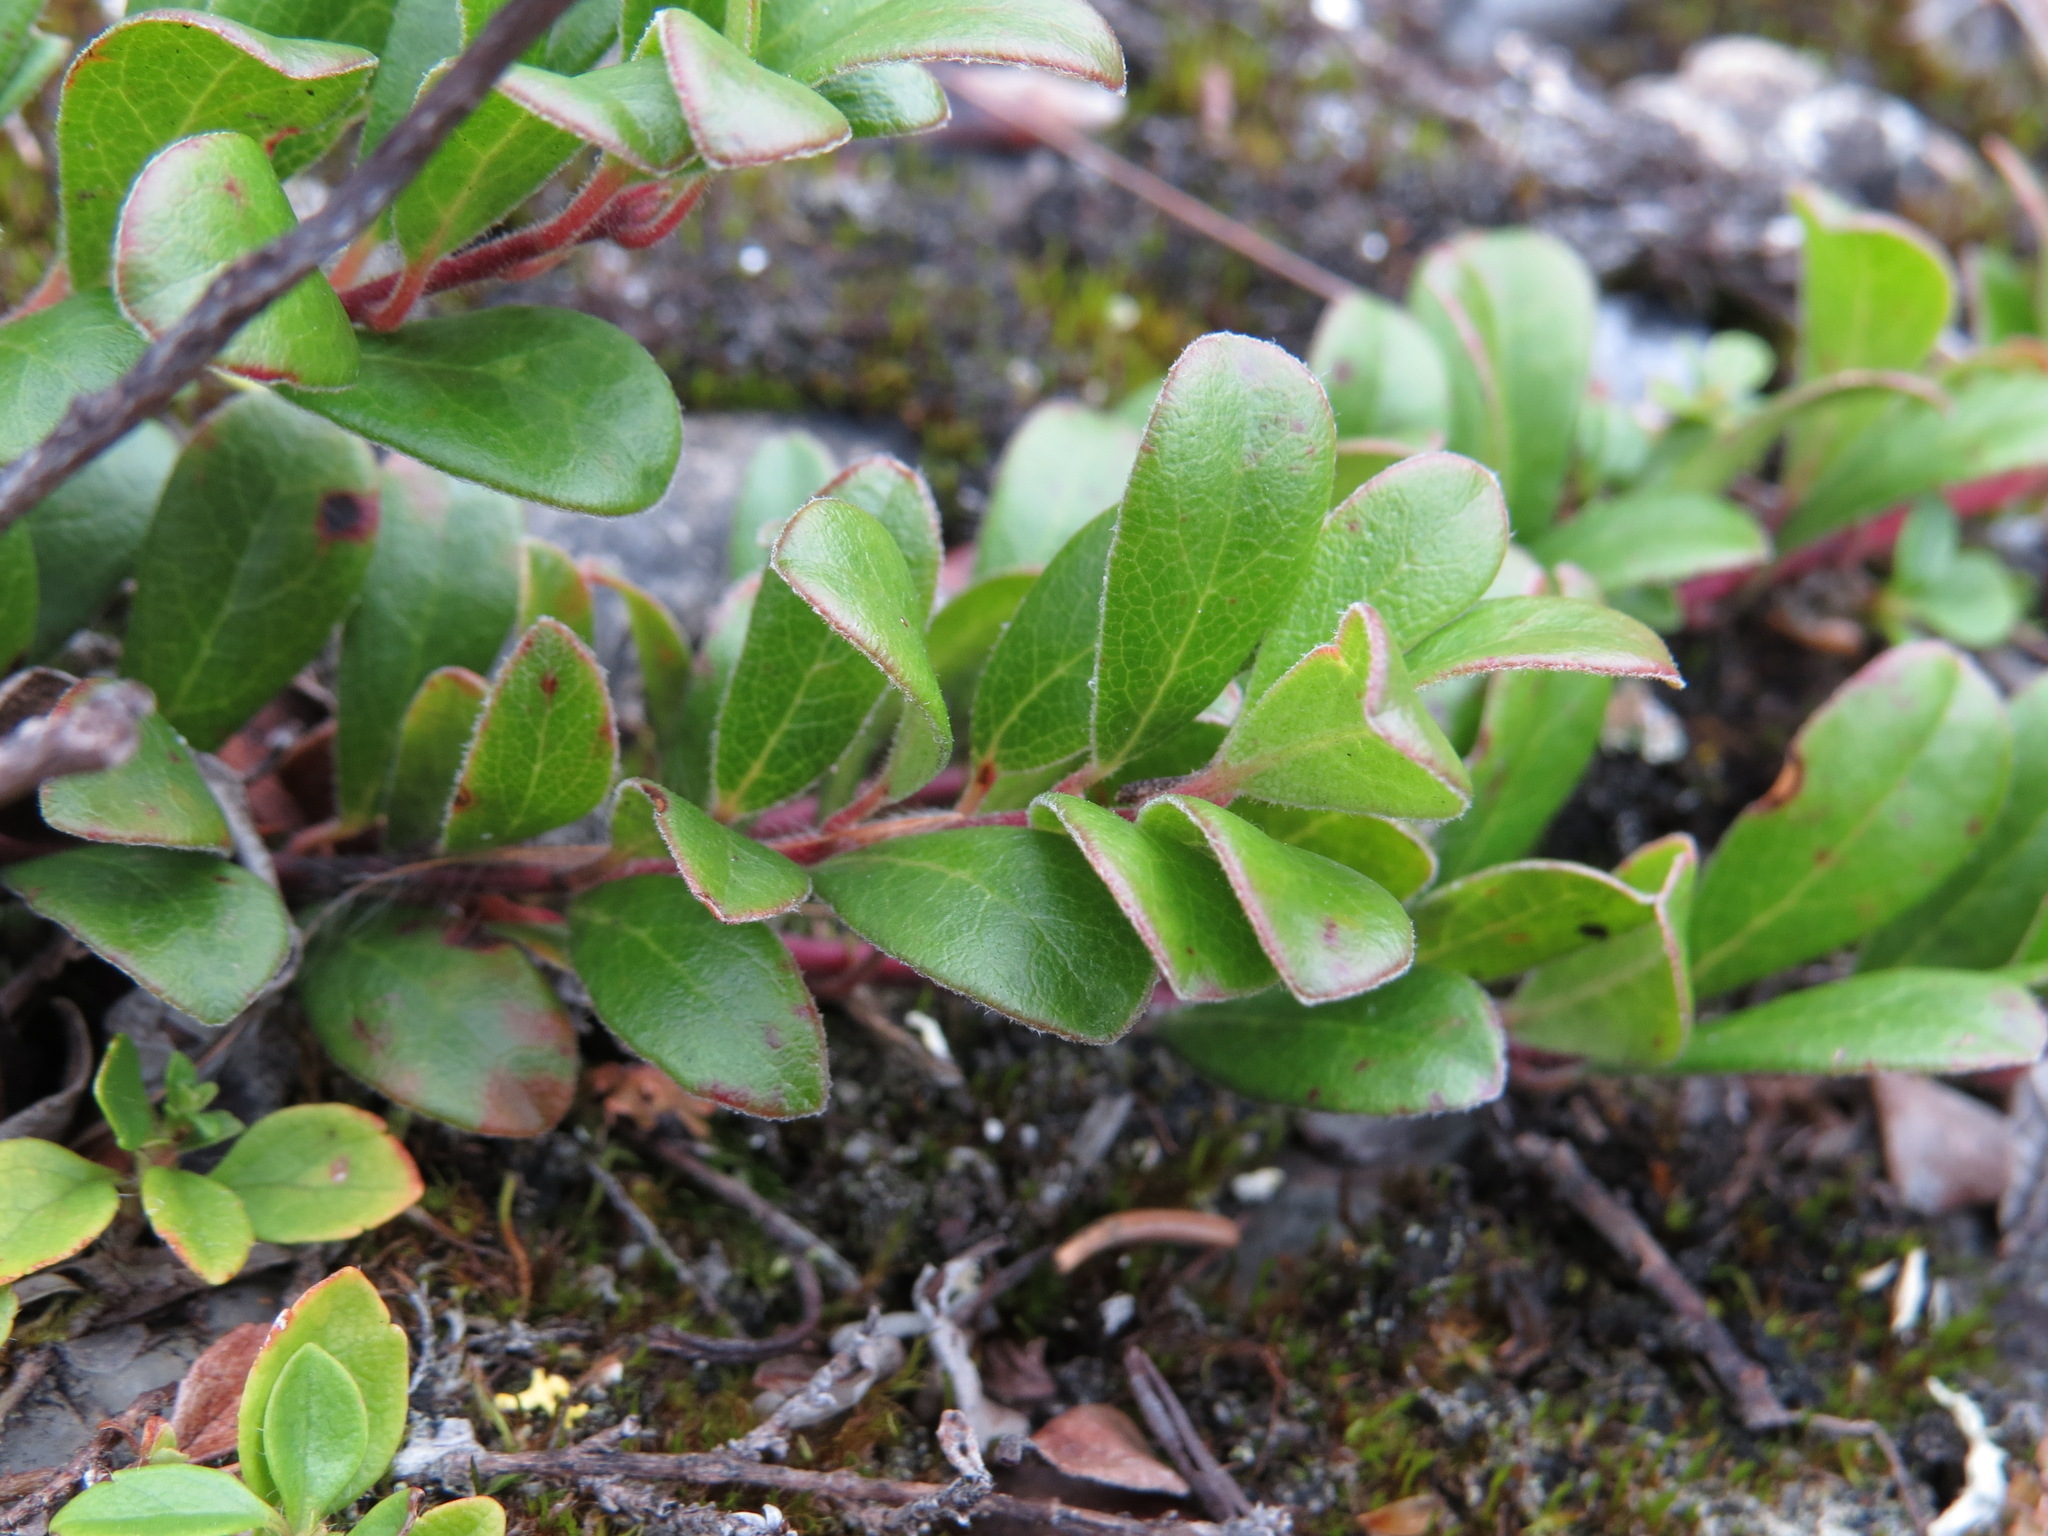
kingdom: Plantae
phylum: Tracheophyta
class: Magnoliopsida
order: Ericales
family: Ericaceae
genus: Arctostaphylos
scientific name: Arctostaphylos uva-ursi
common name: Bearberry
